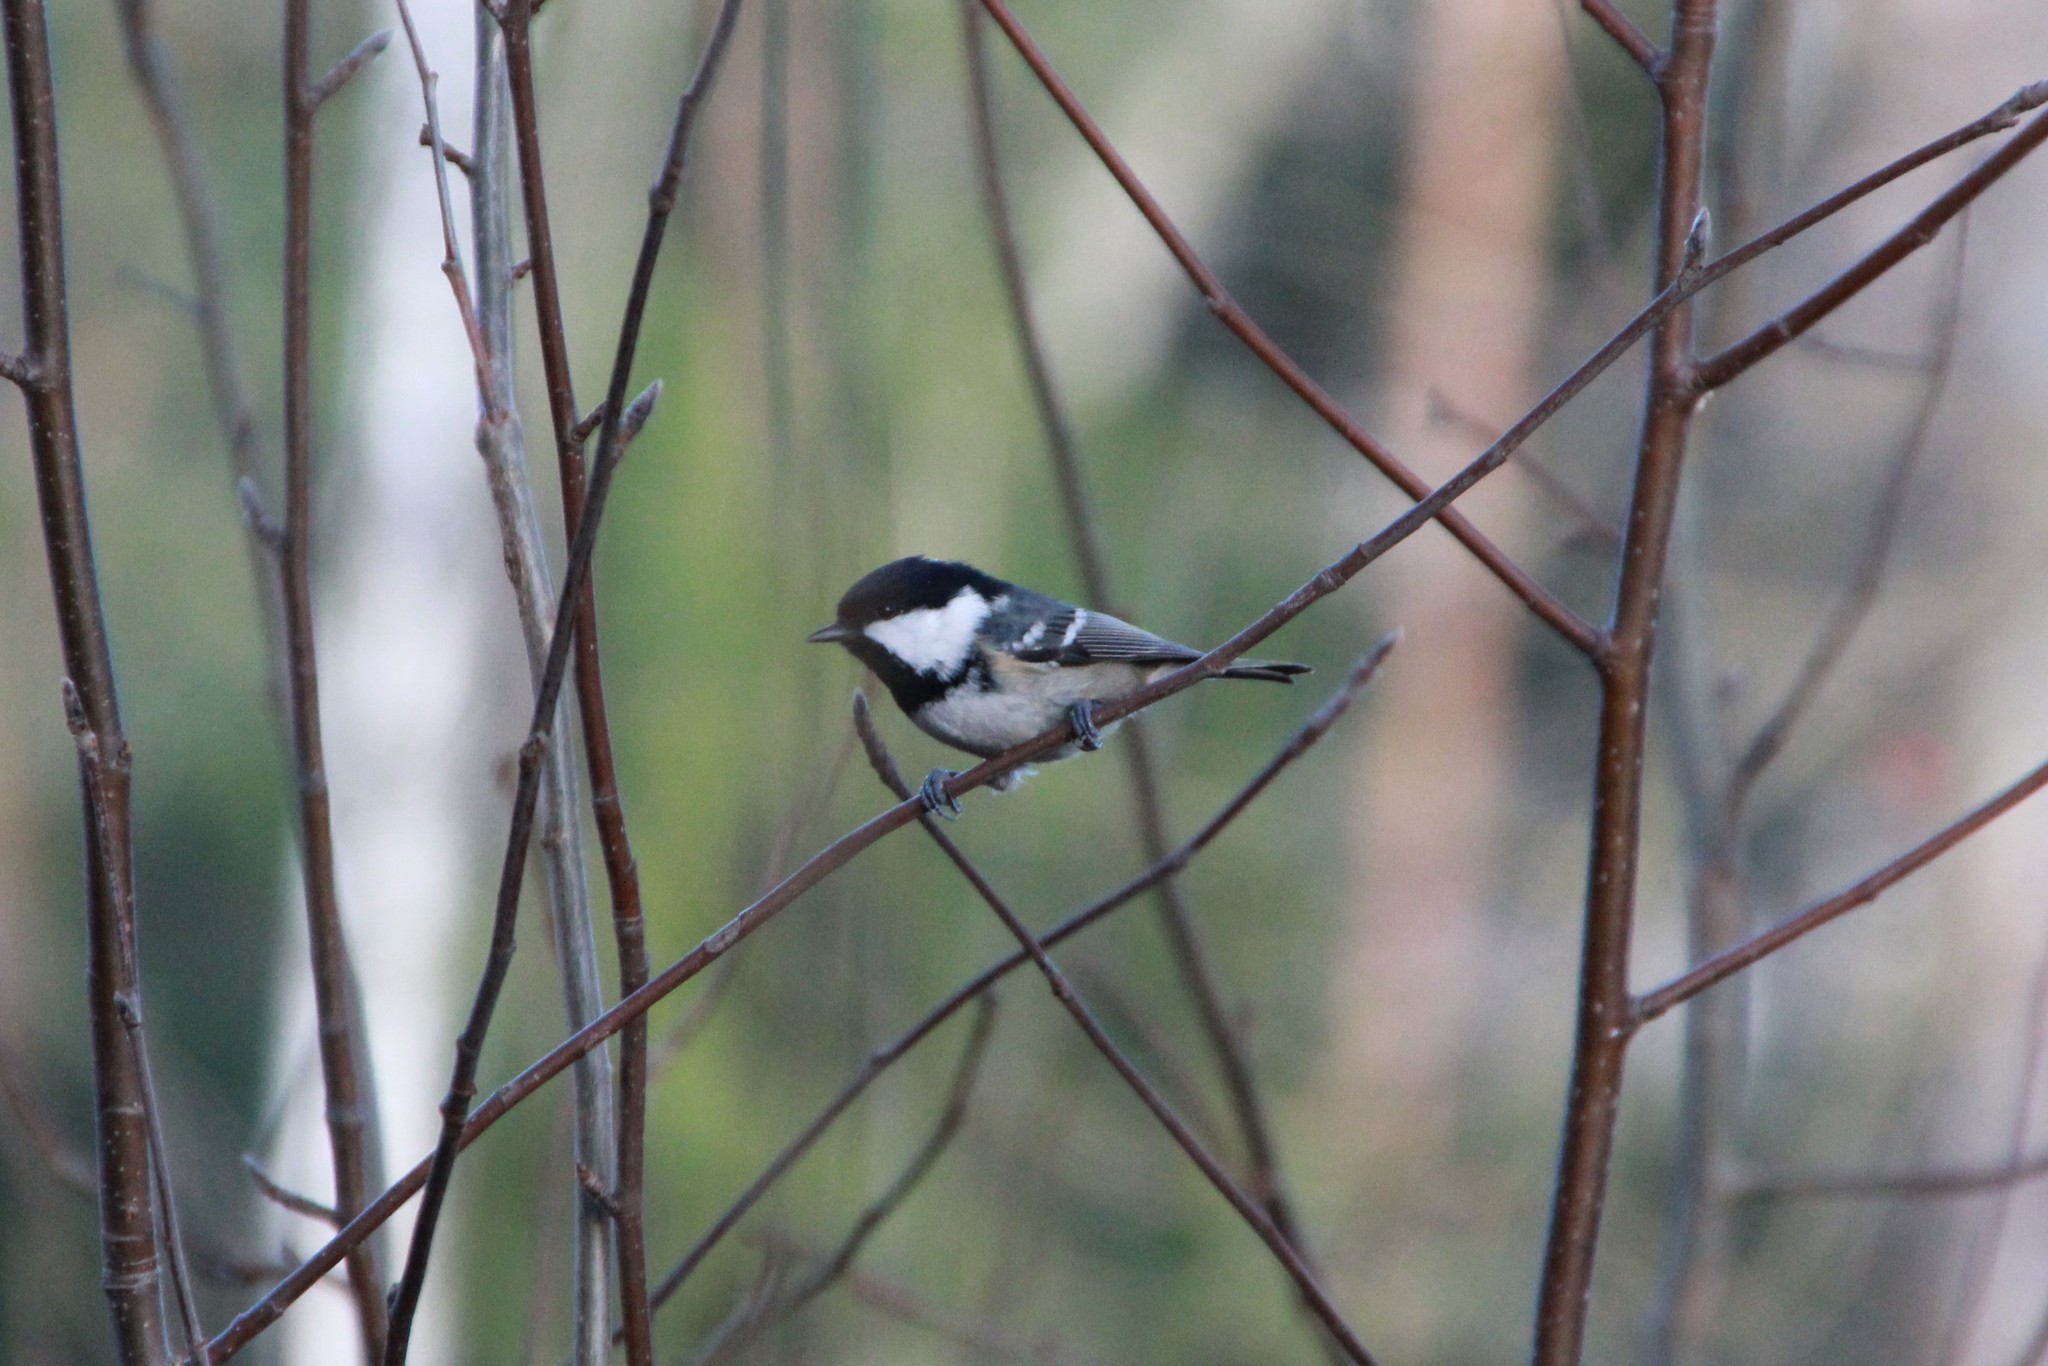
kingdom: Animalia
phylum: Chordata
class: Aves
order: Passeriformes
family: Paridae
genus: Periparus
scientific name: Periparus ater
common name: Coal tit
